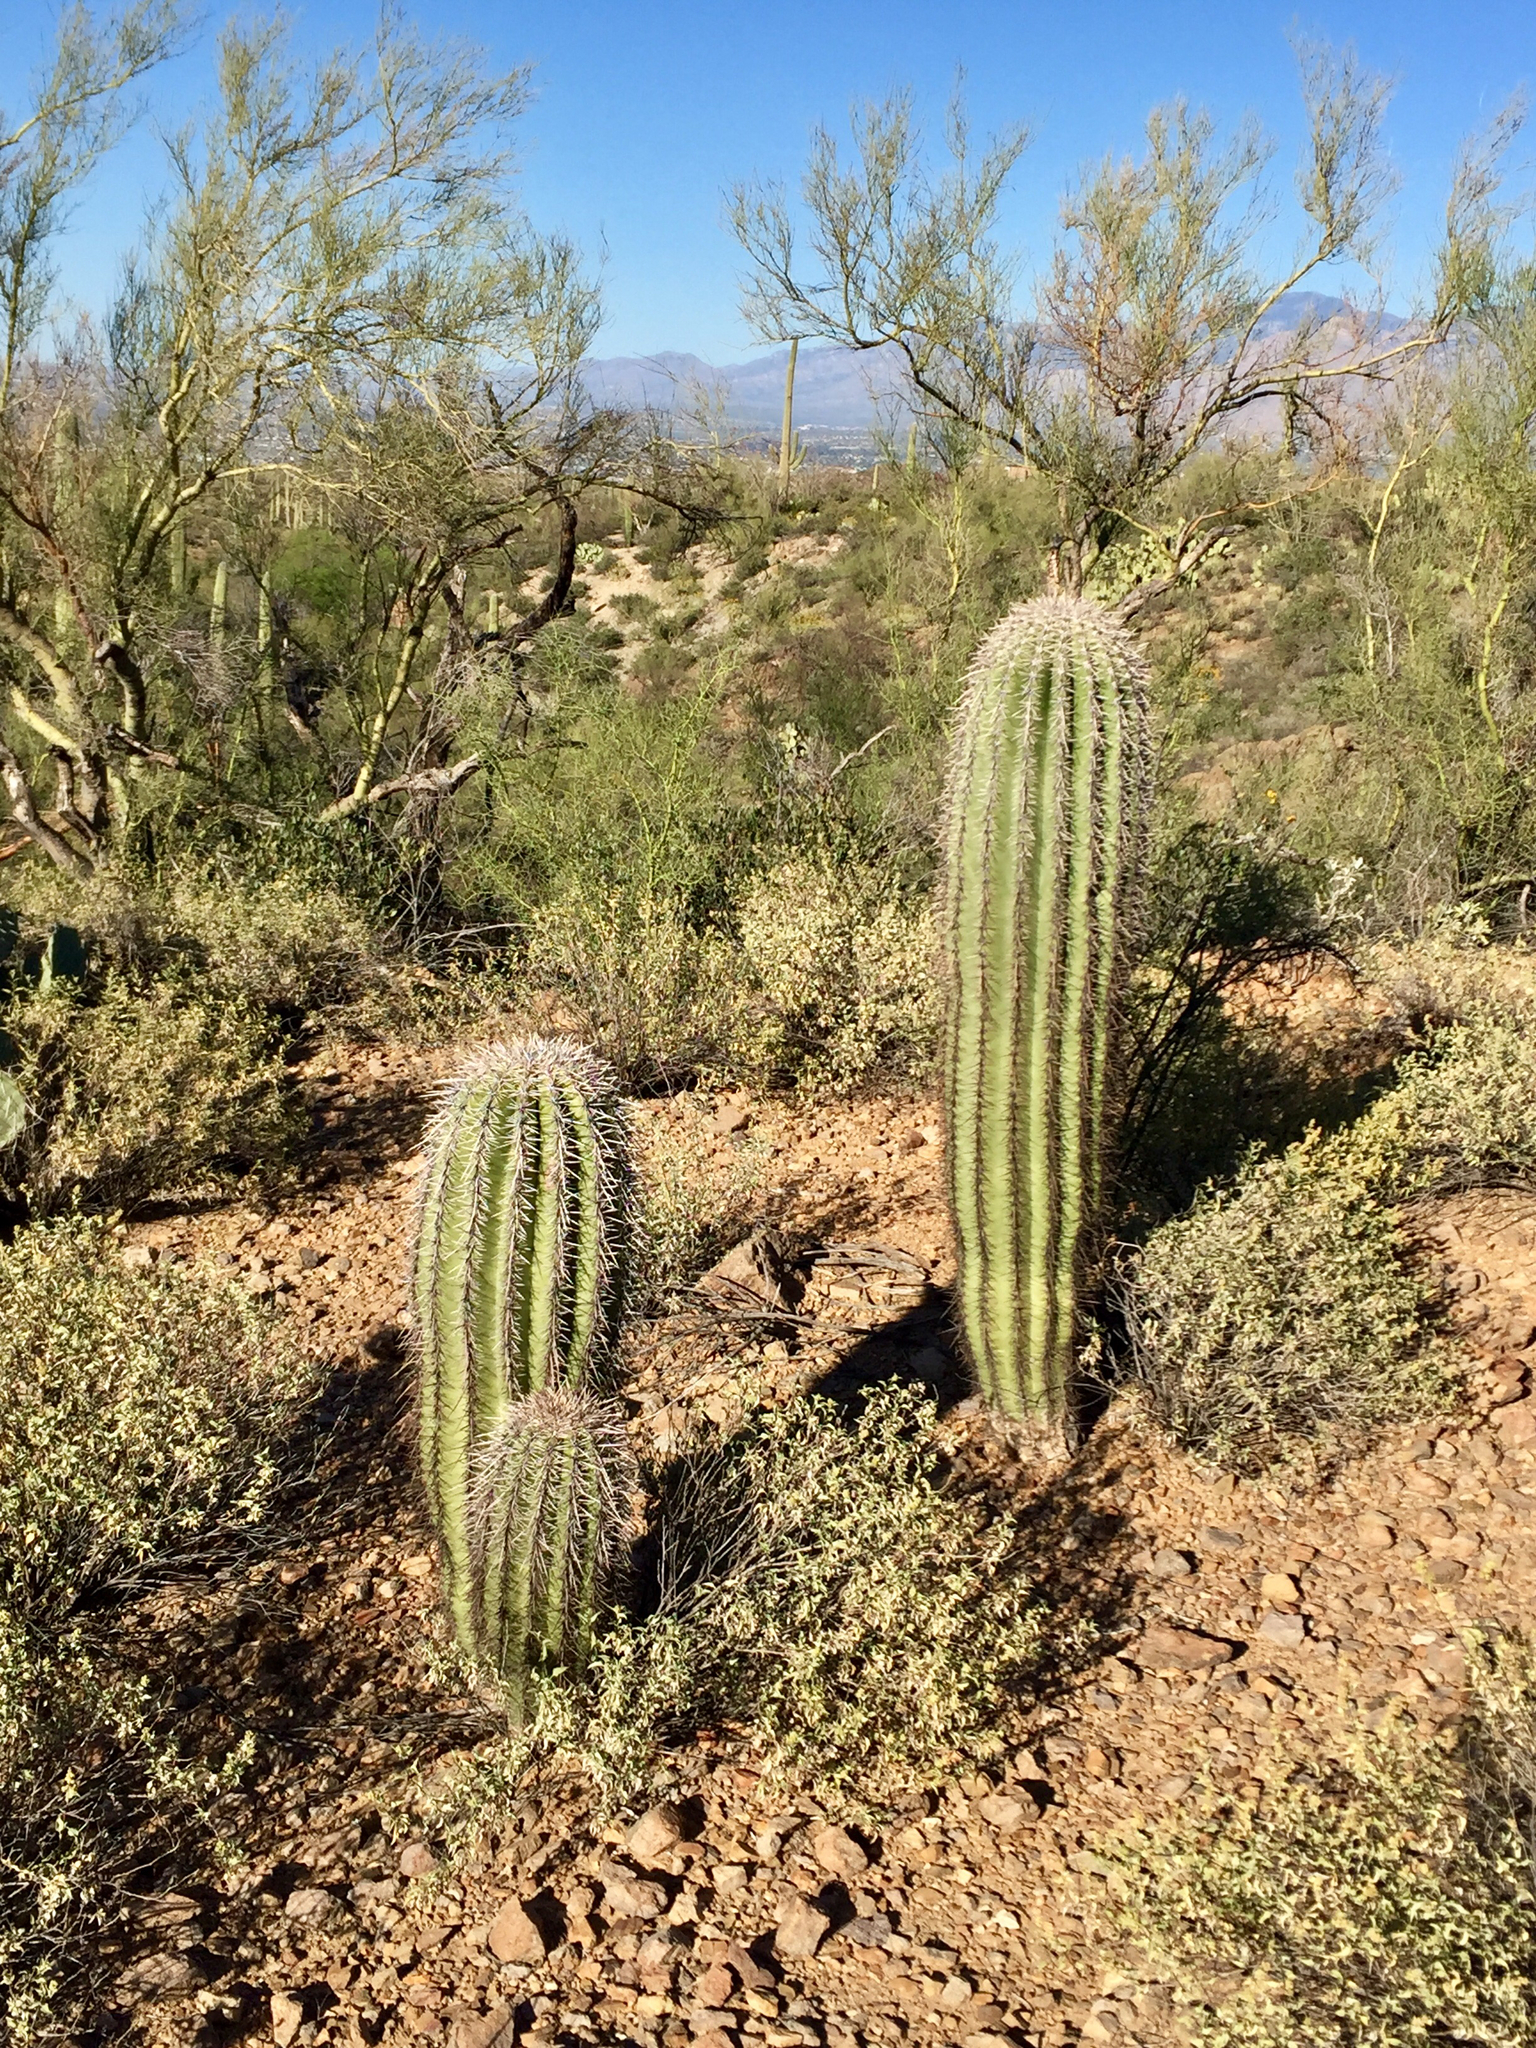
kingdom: Plantae
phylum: Tracheophyta
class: Magnoliopsida
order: Caryophyllales
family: Cactaceae
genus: Carnegiea
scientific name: Carnegiea gigantea
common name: Saguaro
